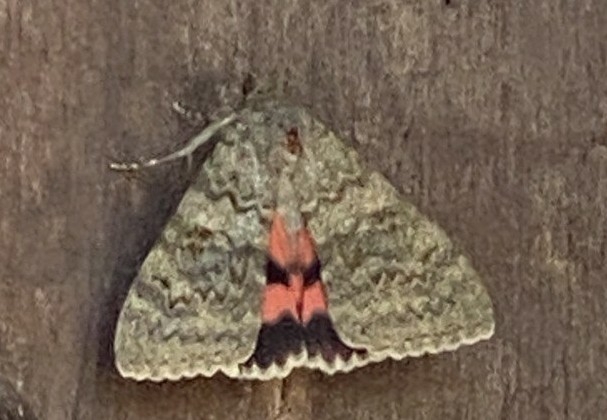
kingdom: Animalia
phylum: Arthropoda
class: Insecta
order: Lepidoptera
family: Erebidae
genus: Catocala
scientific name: Catocala elocata
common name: French red underwing
